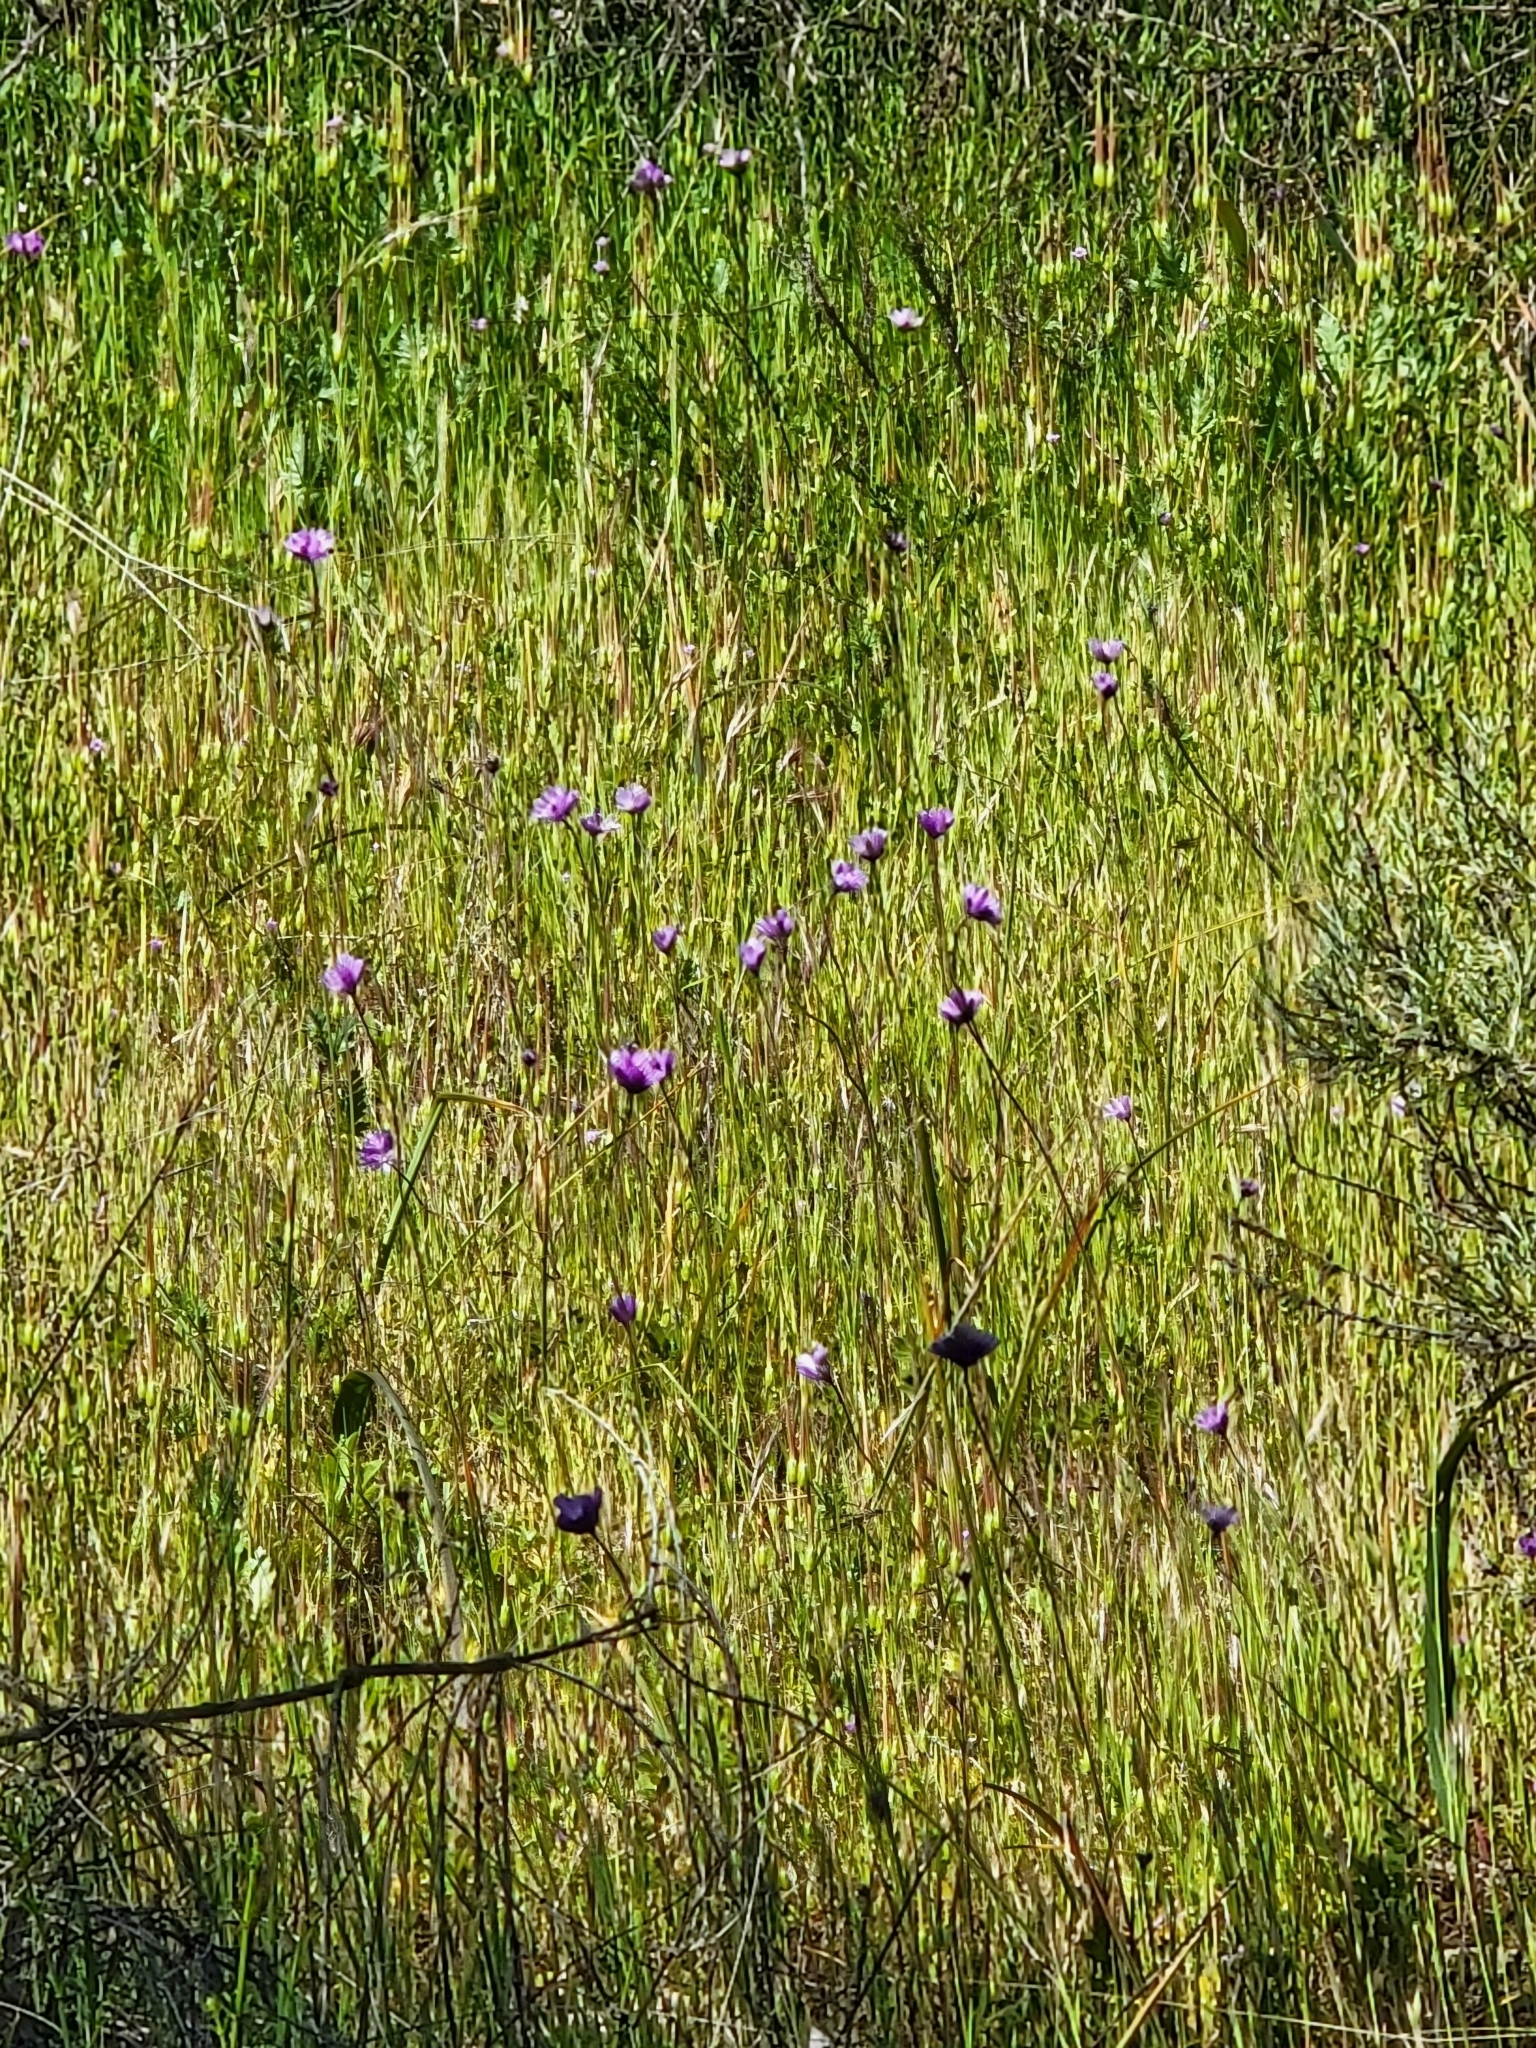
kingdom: Plantae
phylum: Tracheophyta
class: Liliopsida
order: Asparagales
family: Asparagaceae
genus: Dipterostemon
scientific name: Dipterostemon capitatus
